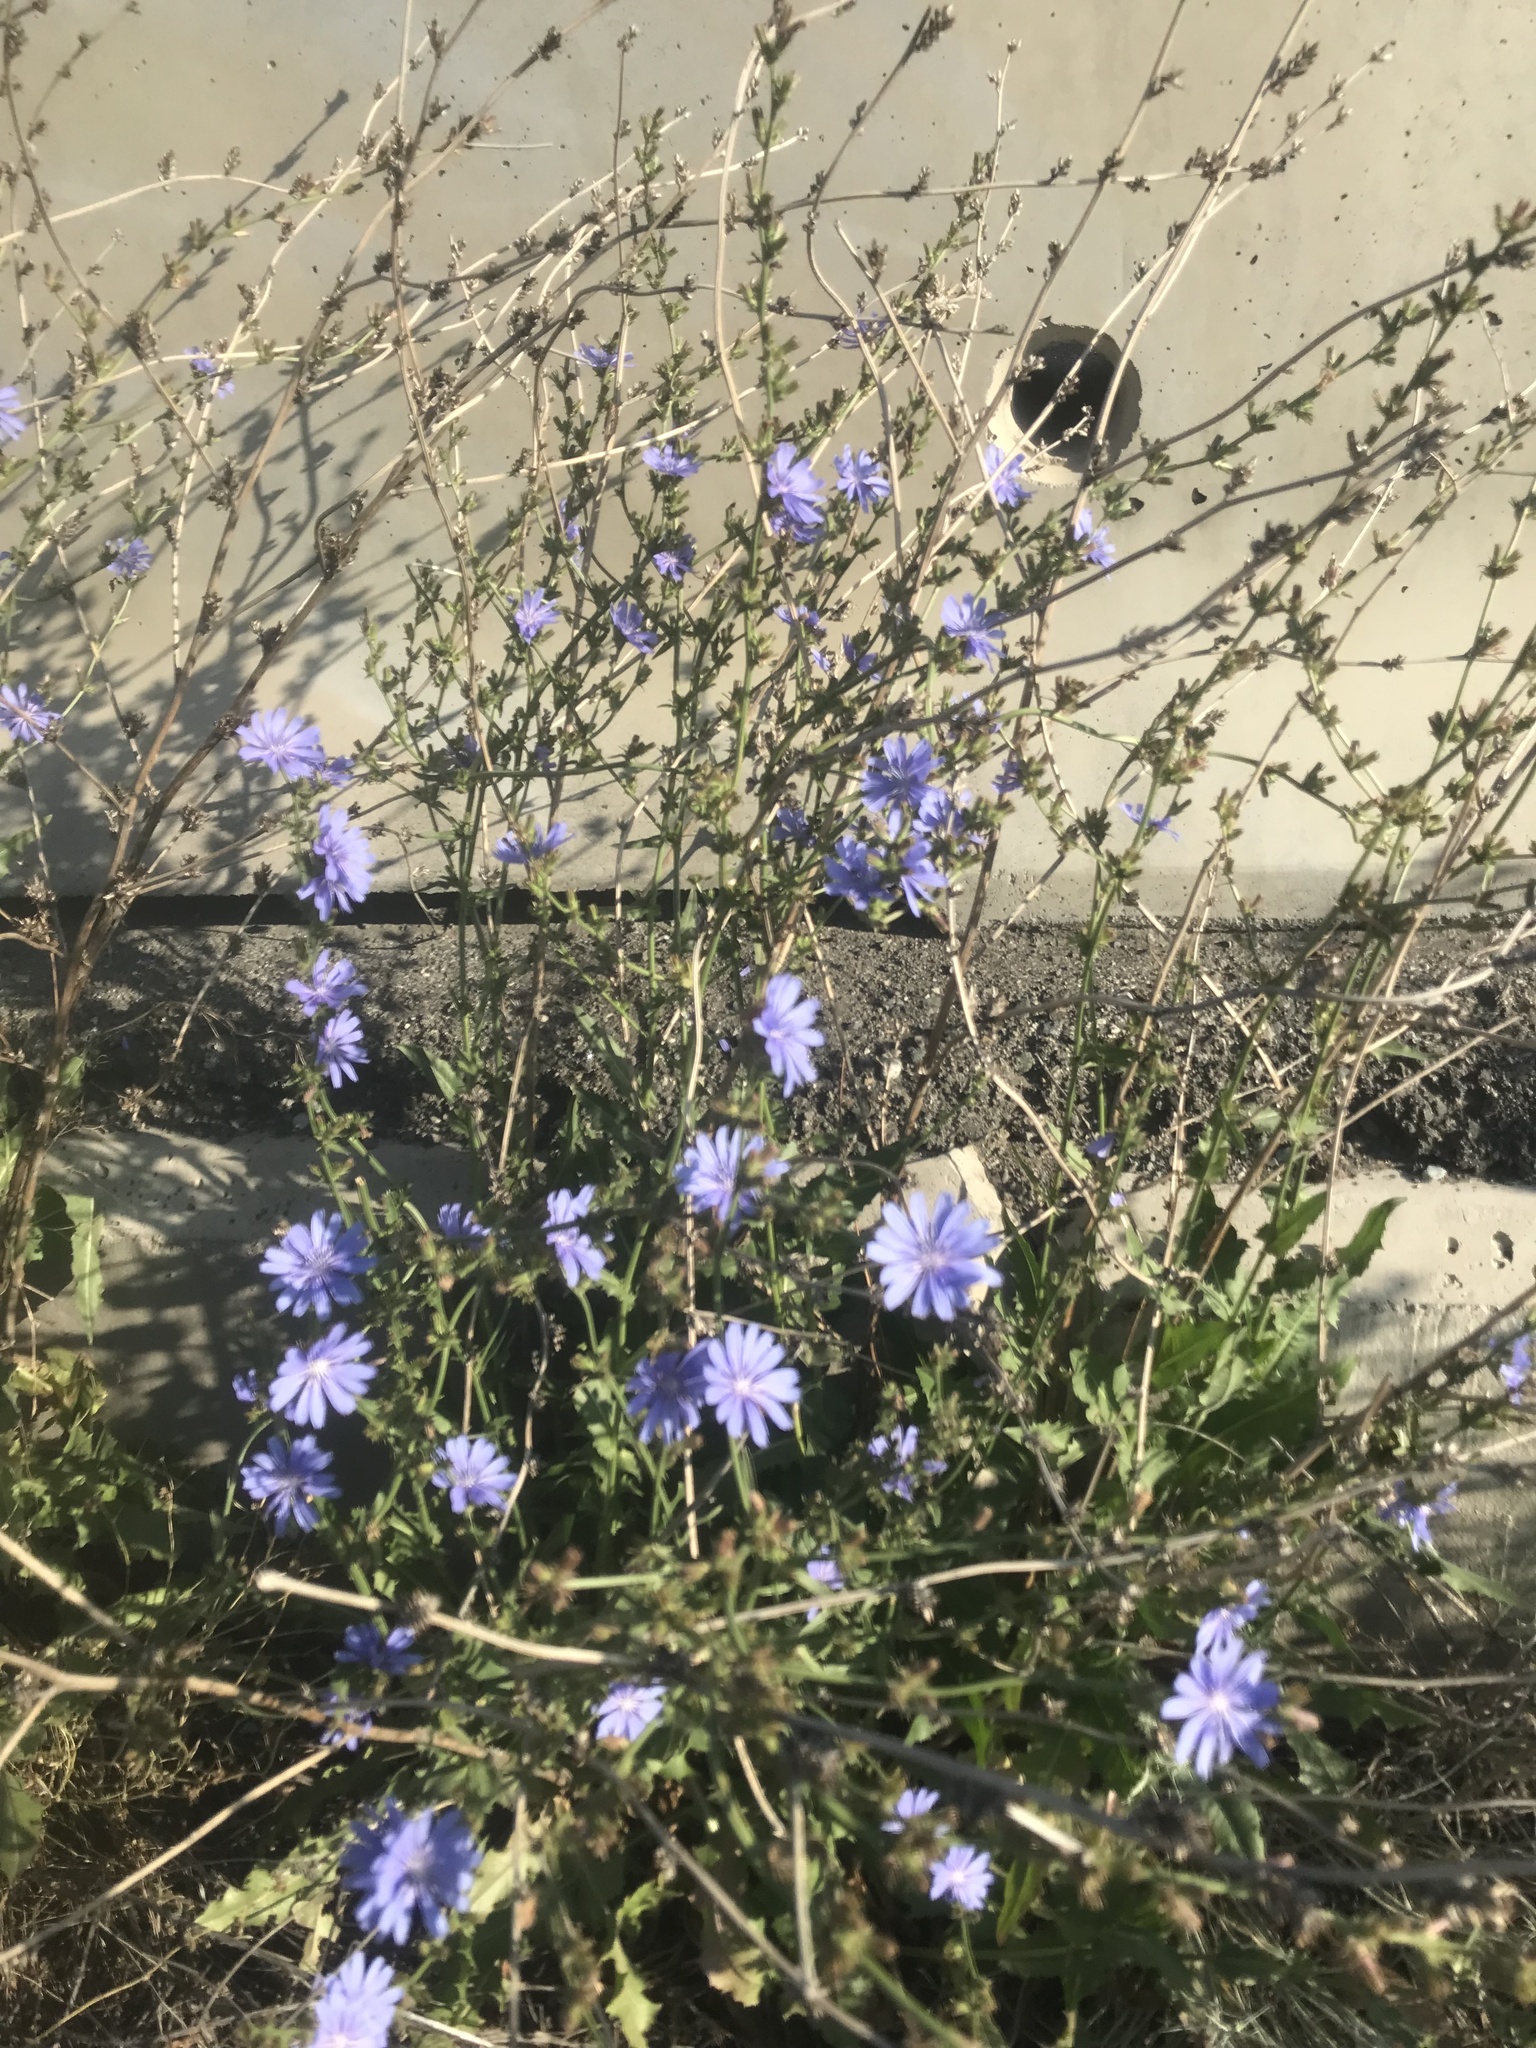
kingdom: Plantae
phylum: Tracheophyta
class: Magnoliopsida
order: Asterales
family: Asteraceae
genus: Cichorium
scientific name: Cichorium intybus
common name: Chicory
